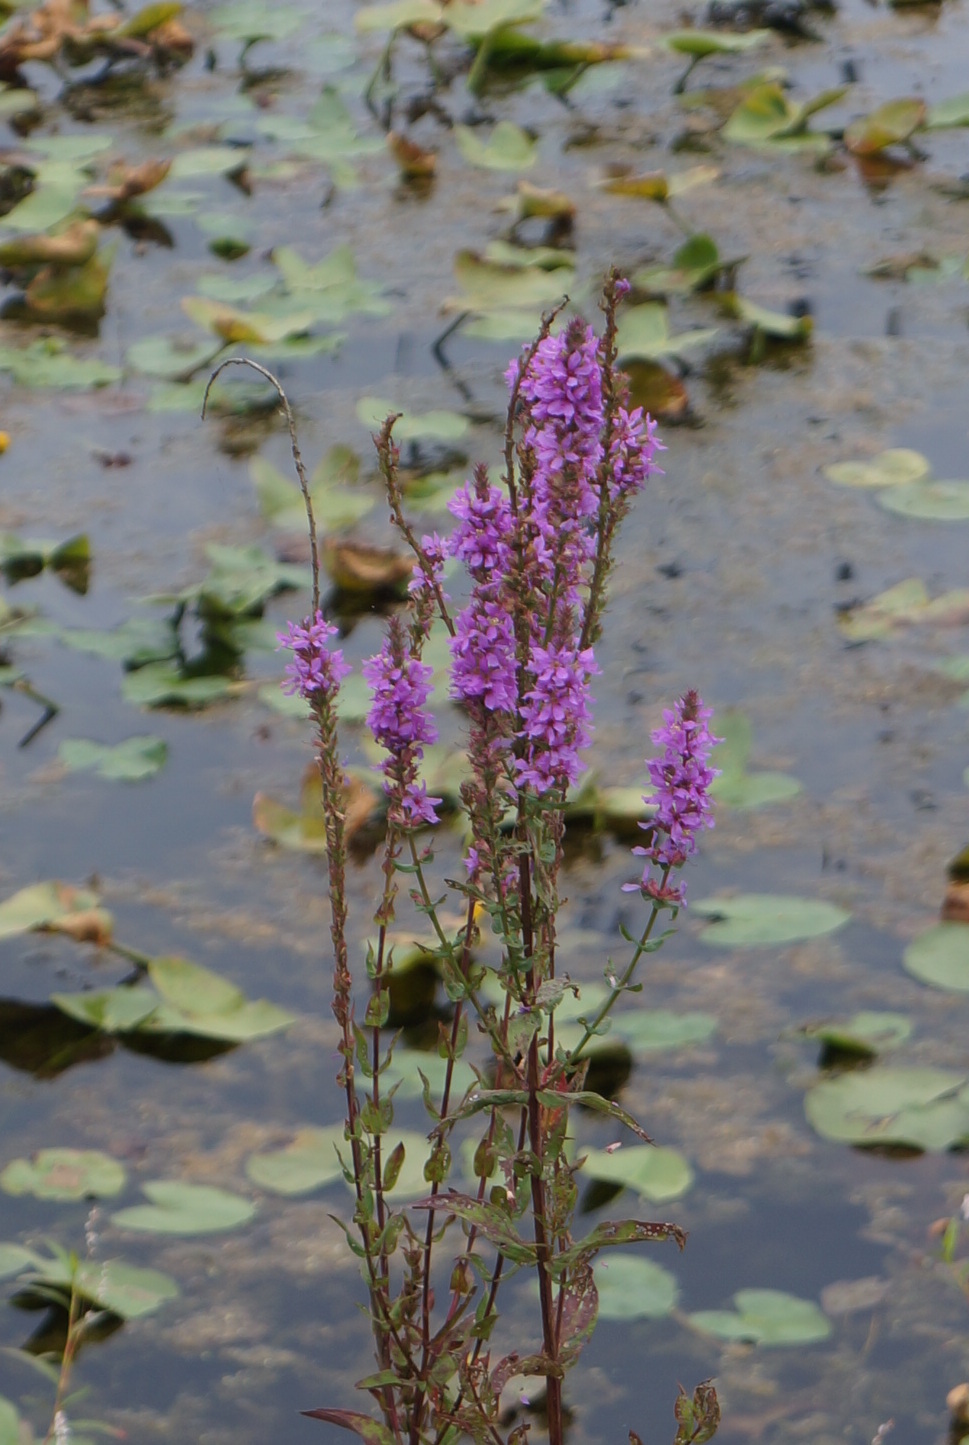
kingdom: Plantae
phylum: Tracheophyta
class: Magnoliopsida
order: Myrtales
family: Lythraceae
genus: Lythrum
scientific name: Lythrum salicaria
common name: Purple loosestrife
